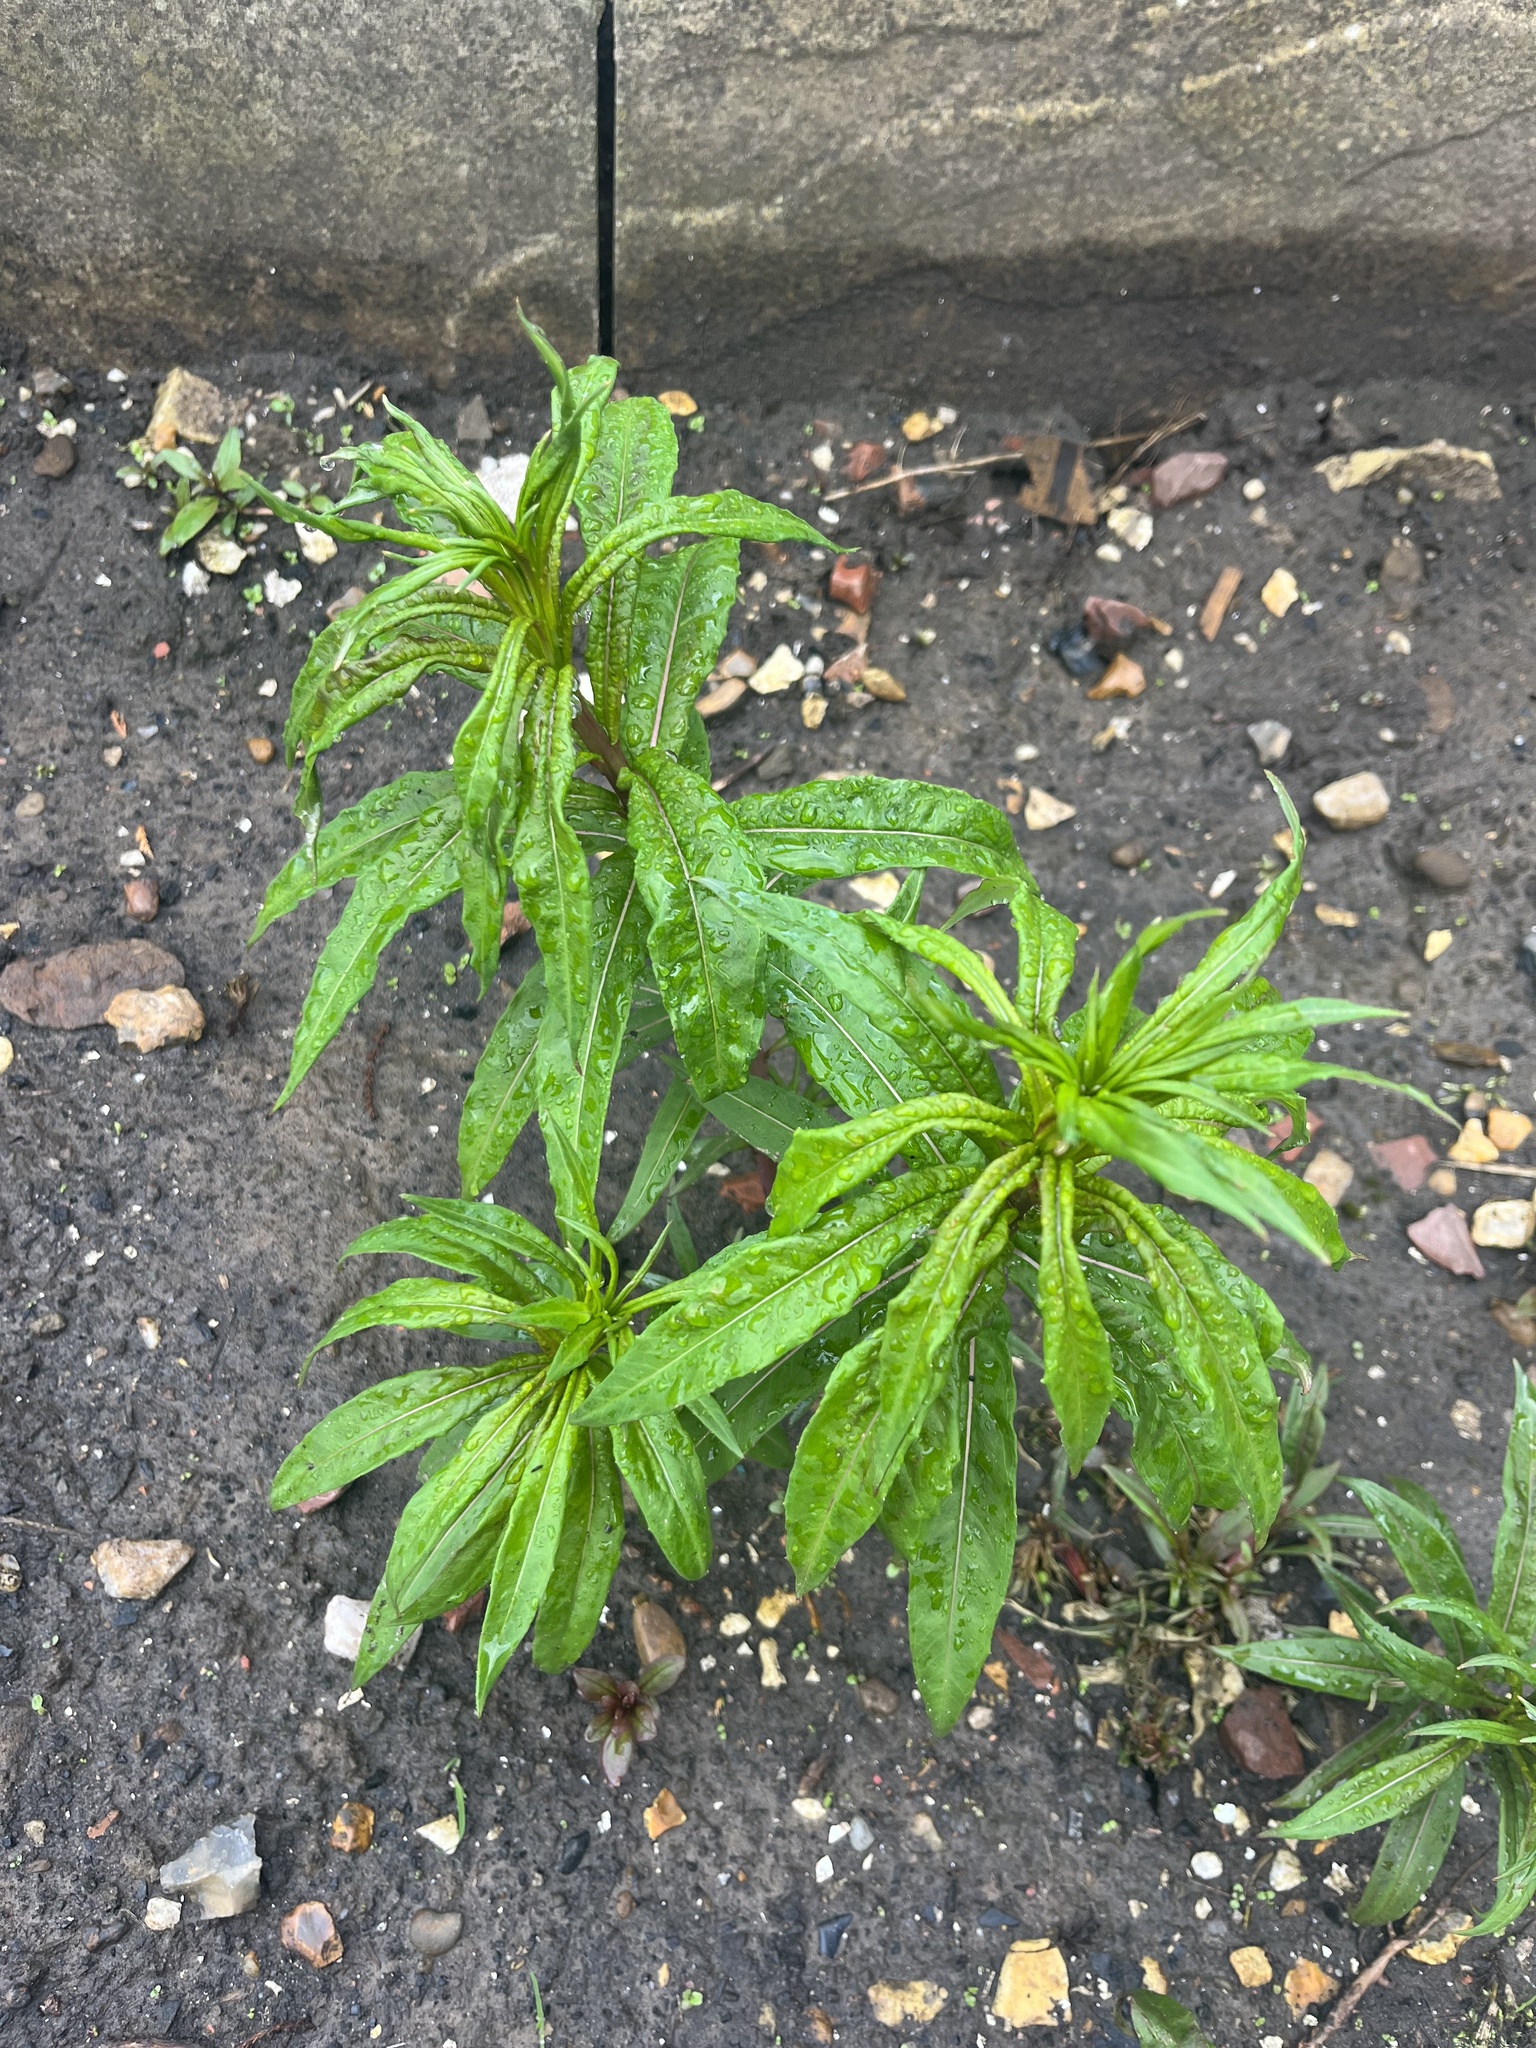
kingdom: Plantae
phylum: Tracheophyta
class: Magnoliopsida
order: Myrtales
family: Onagraceae
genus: Chamaenerion
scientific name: Chamaenerion angustifolium
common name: Fireweed
